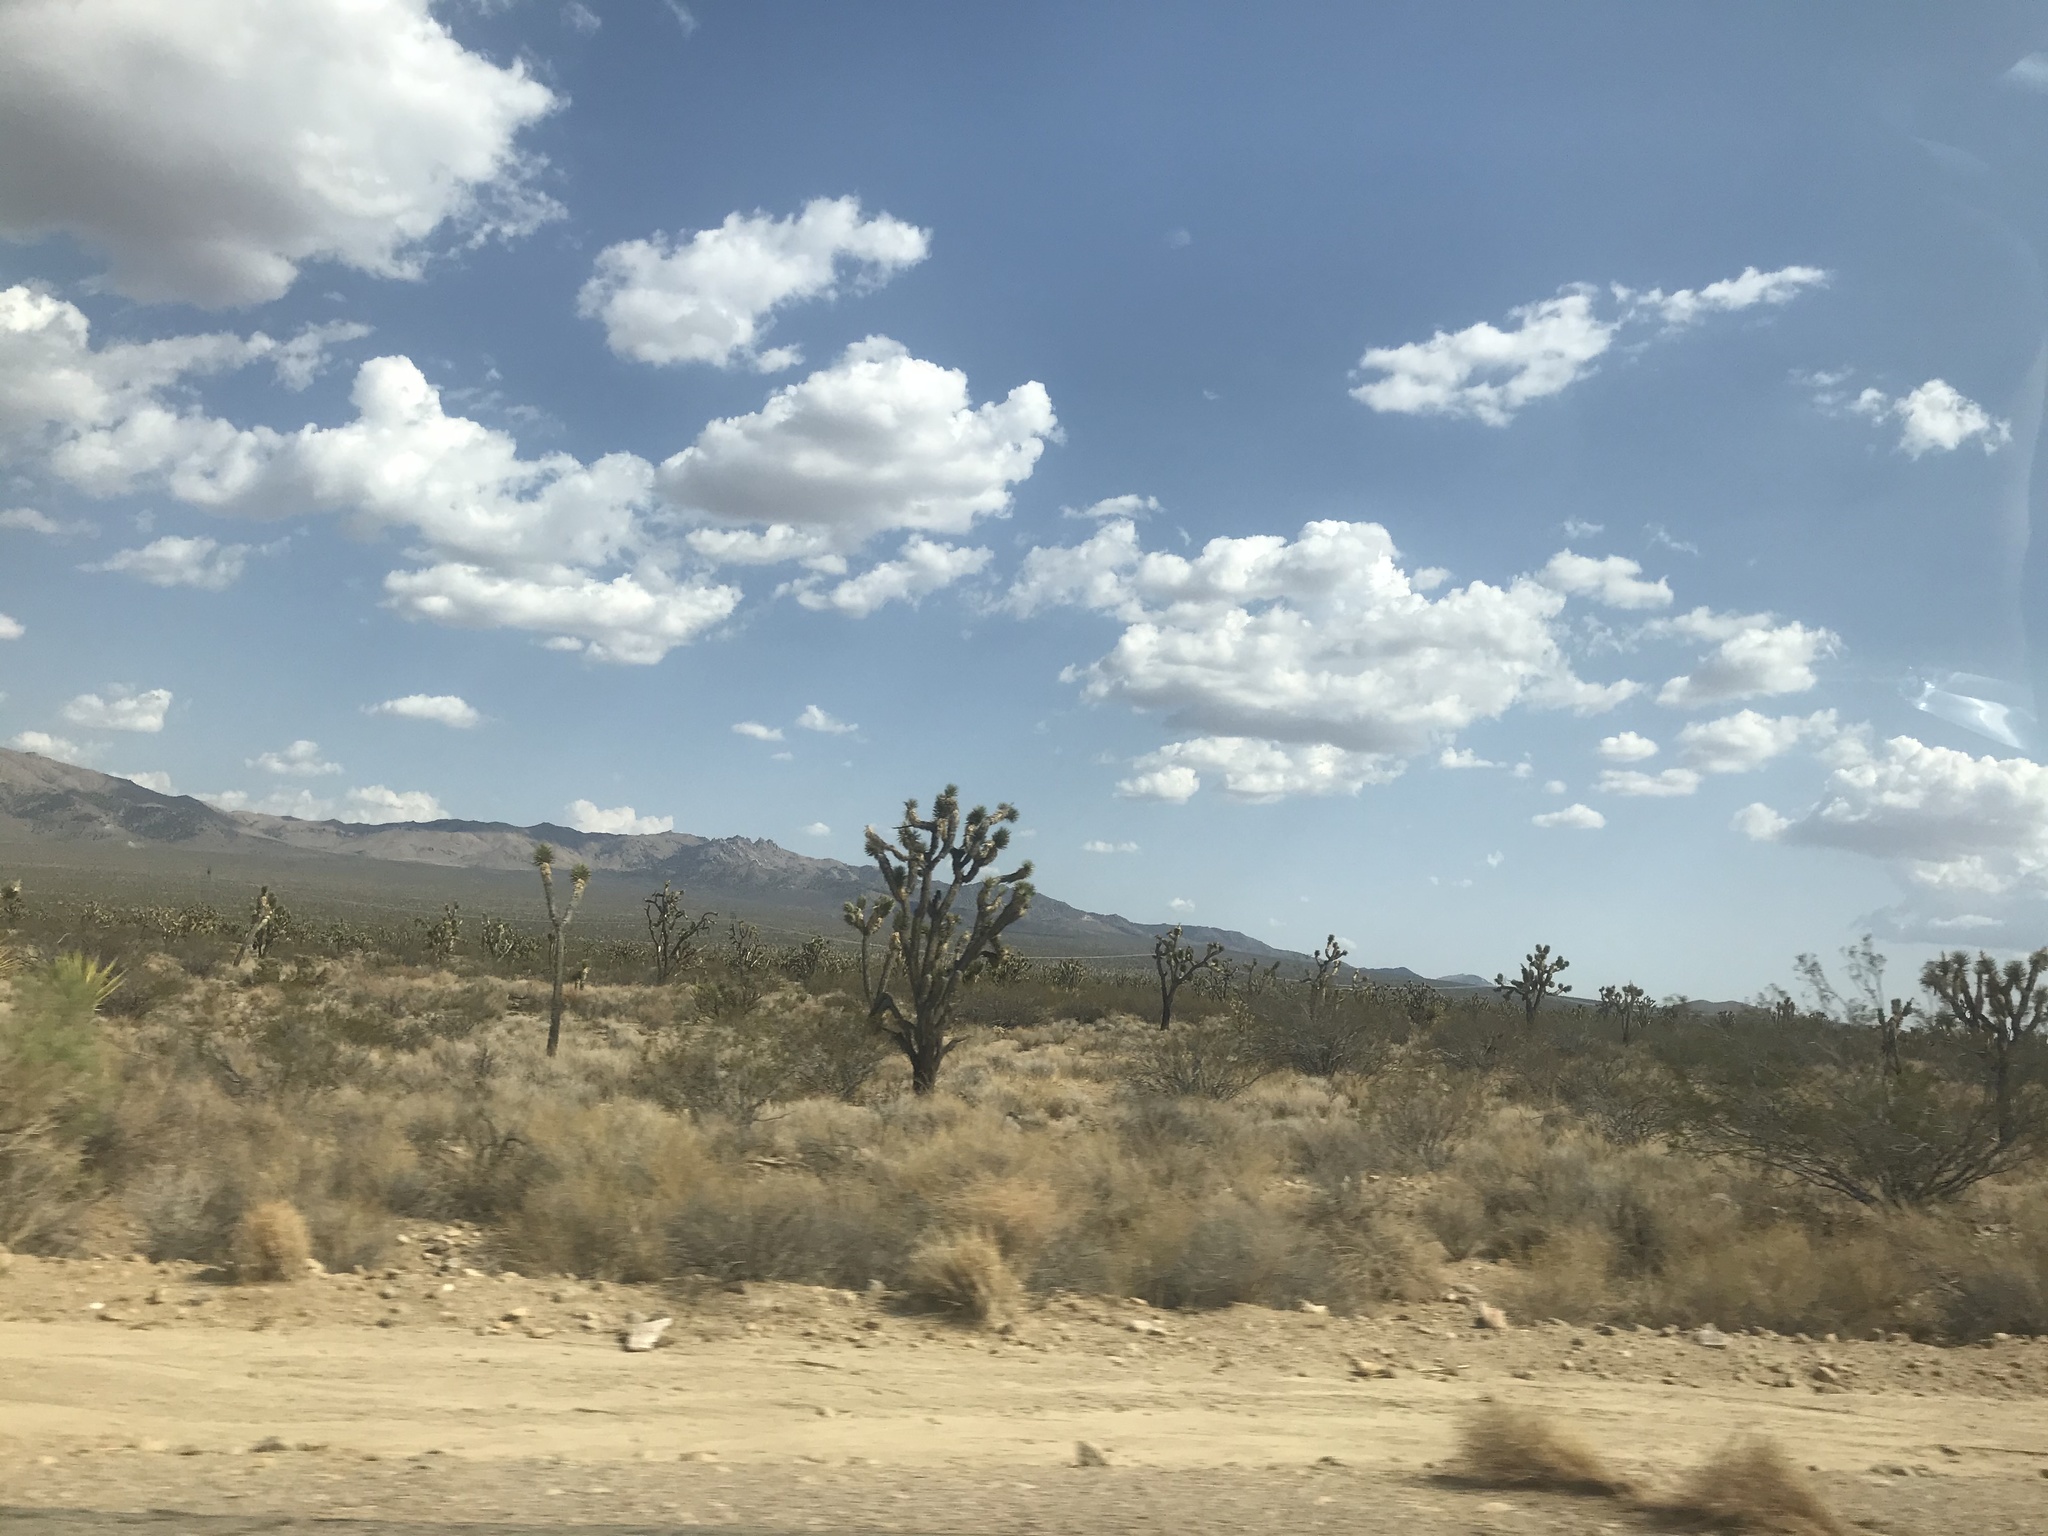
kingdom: Plantae
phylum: Tracheophyta
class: Liliopsida
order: Asparagales
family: Asparagaceae
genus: Yucca
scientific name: Yucca brevifolia
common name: Joshua tree
